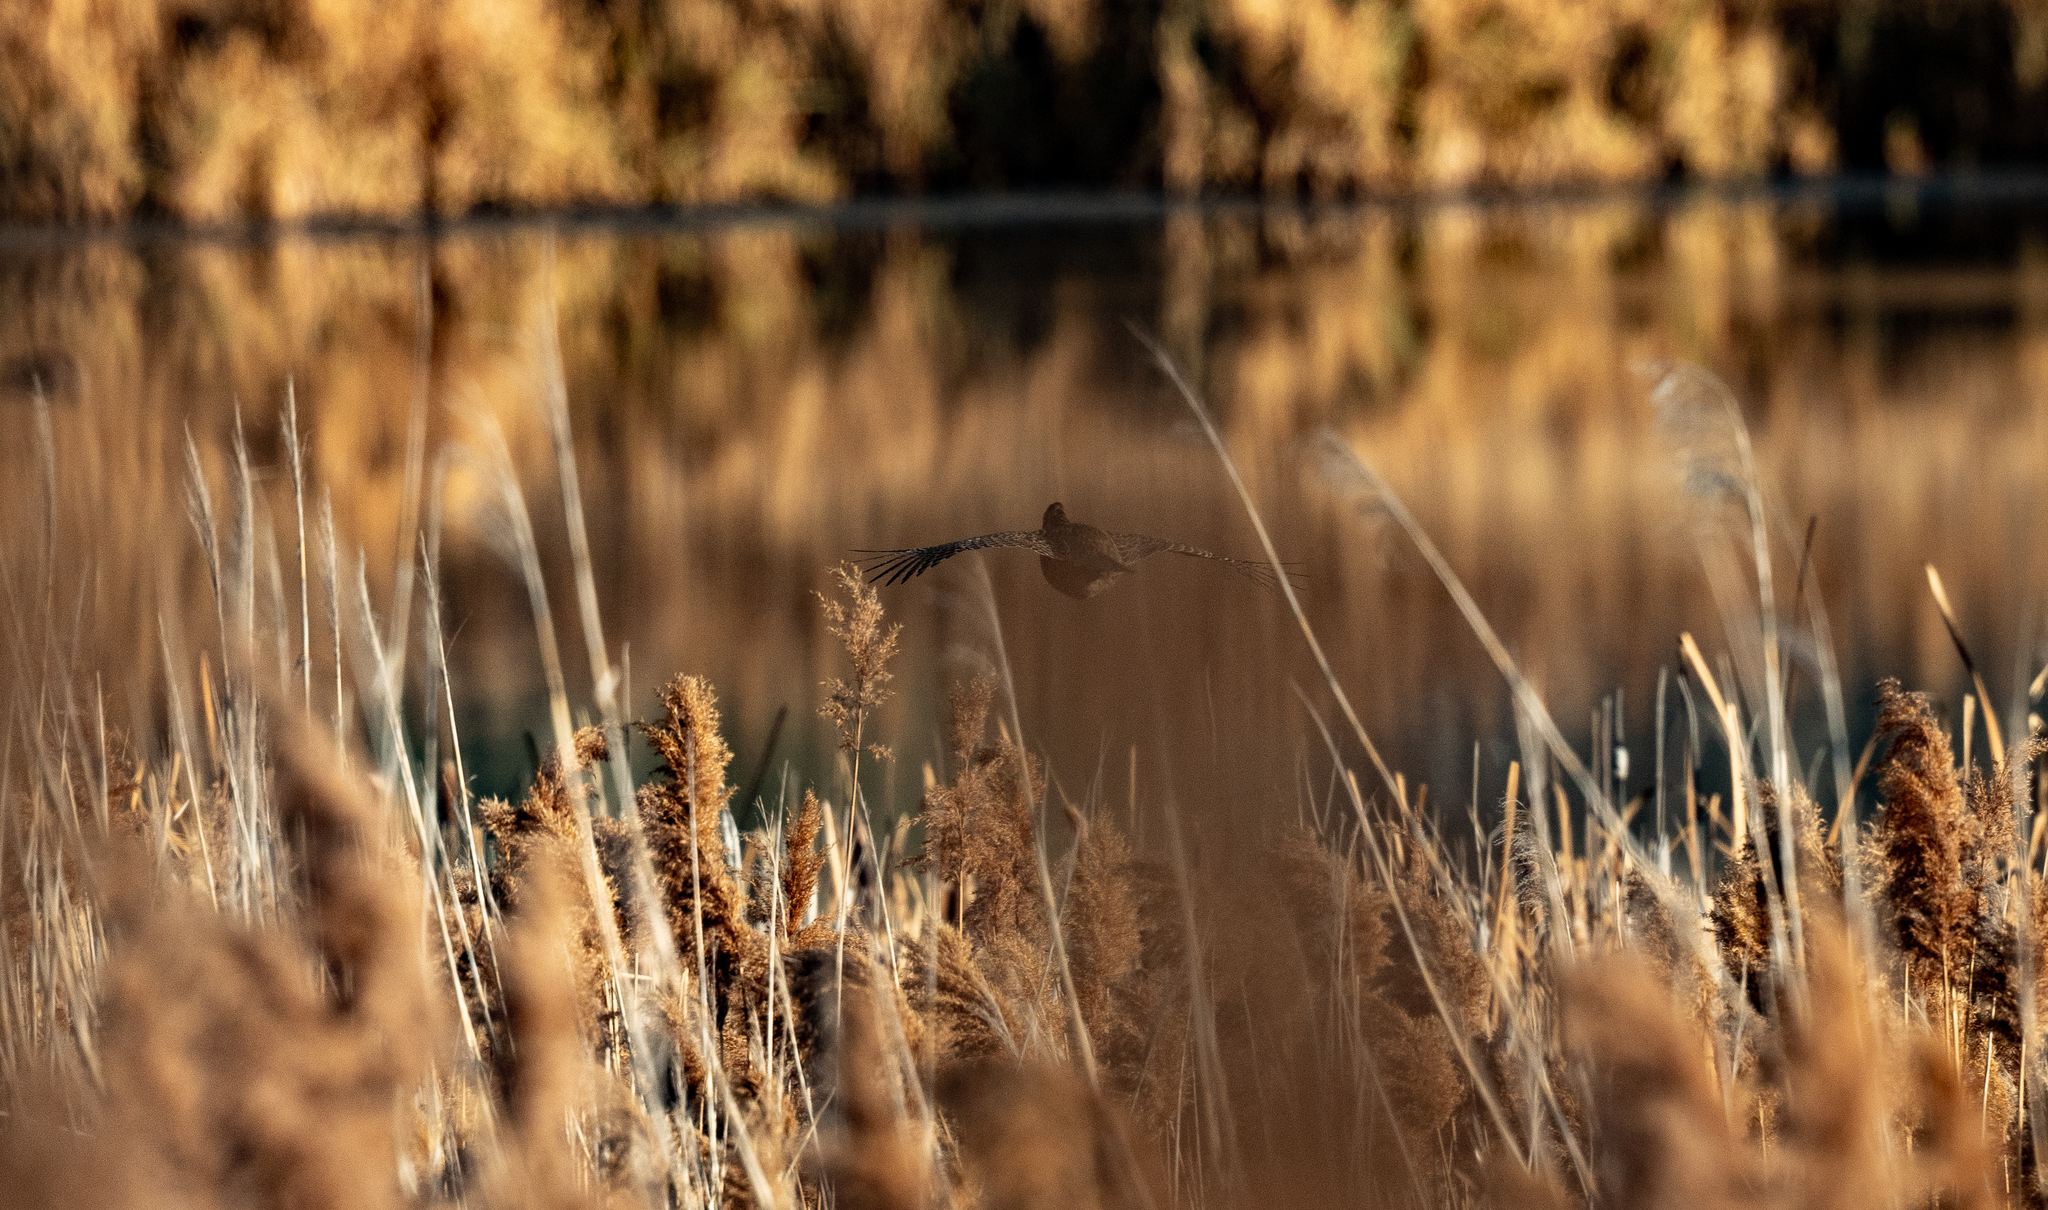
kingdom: Animalia
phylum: Chordata
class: Aves
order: Galliformes
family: Phasianidae
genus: Phasianus
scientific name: Phasianus colchicus
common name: Common pheasant
